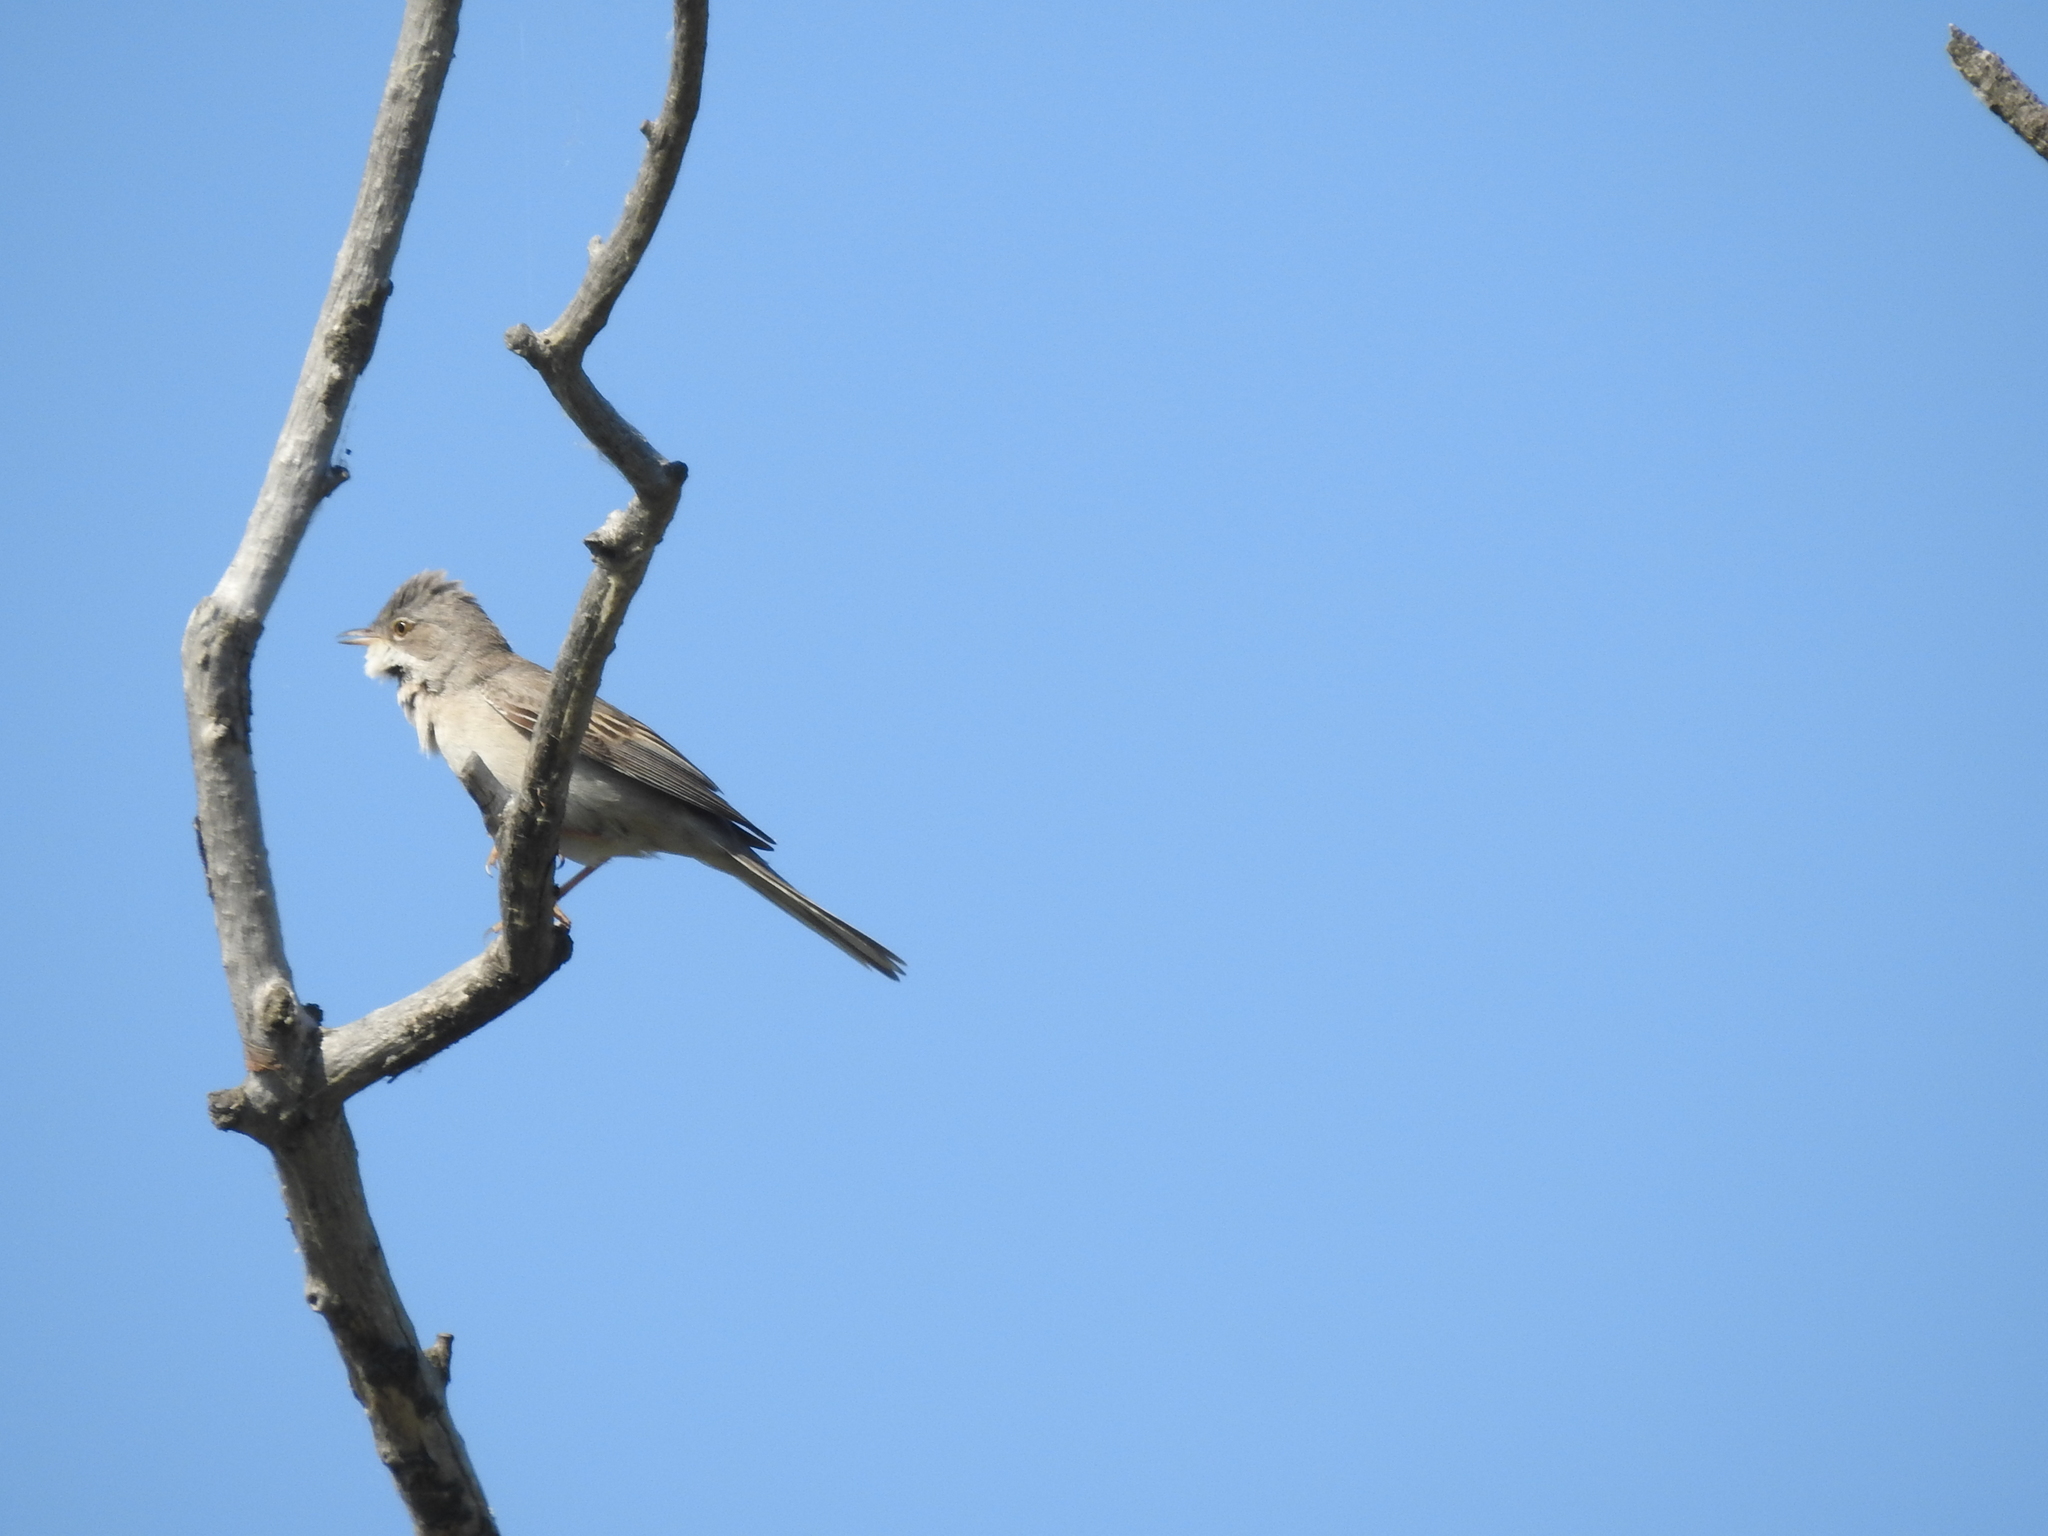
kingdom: Animalia
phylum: Chordata
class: Aves
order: Passeriformes
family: Sylviidae
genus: Sylvia
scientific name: Sylvia communis
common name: Common whitethroat
